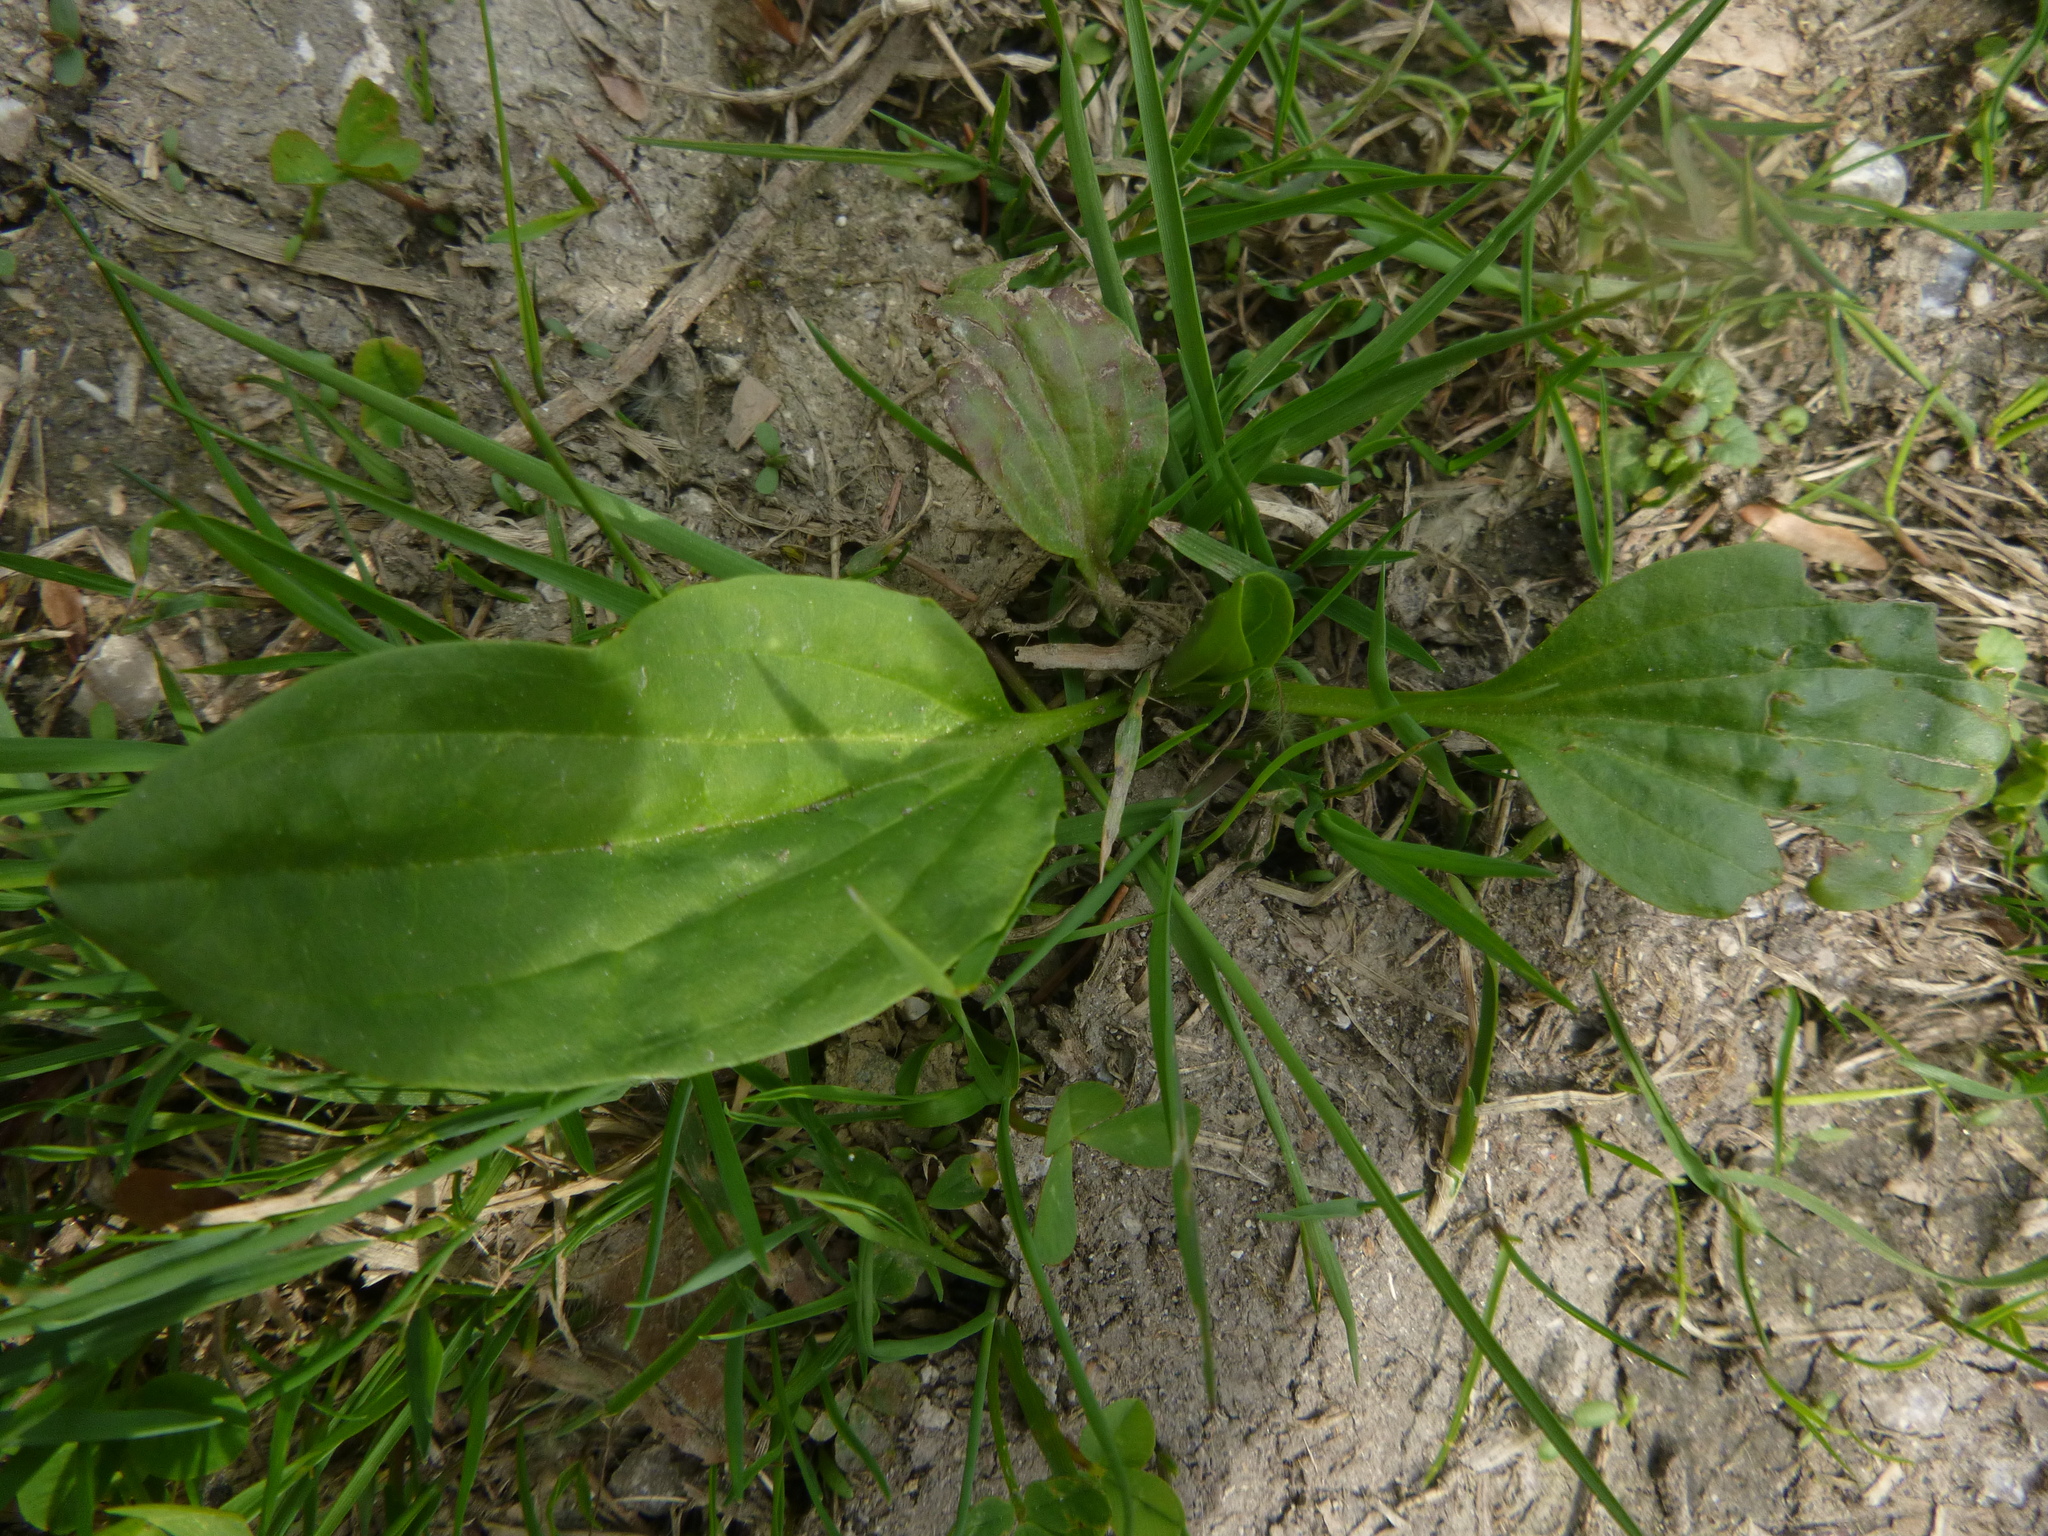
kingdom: Plantae
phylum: Tracheophyta
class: Magnoliopsida
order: Lamiales
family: Plantaginaceae
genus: Plantago
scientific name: Plantago major
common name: Common plantain
